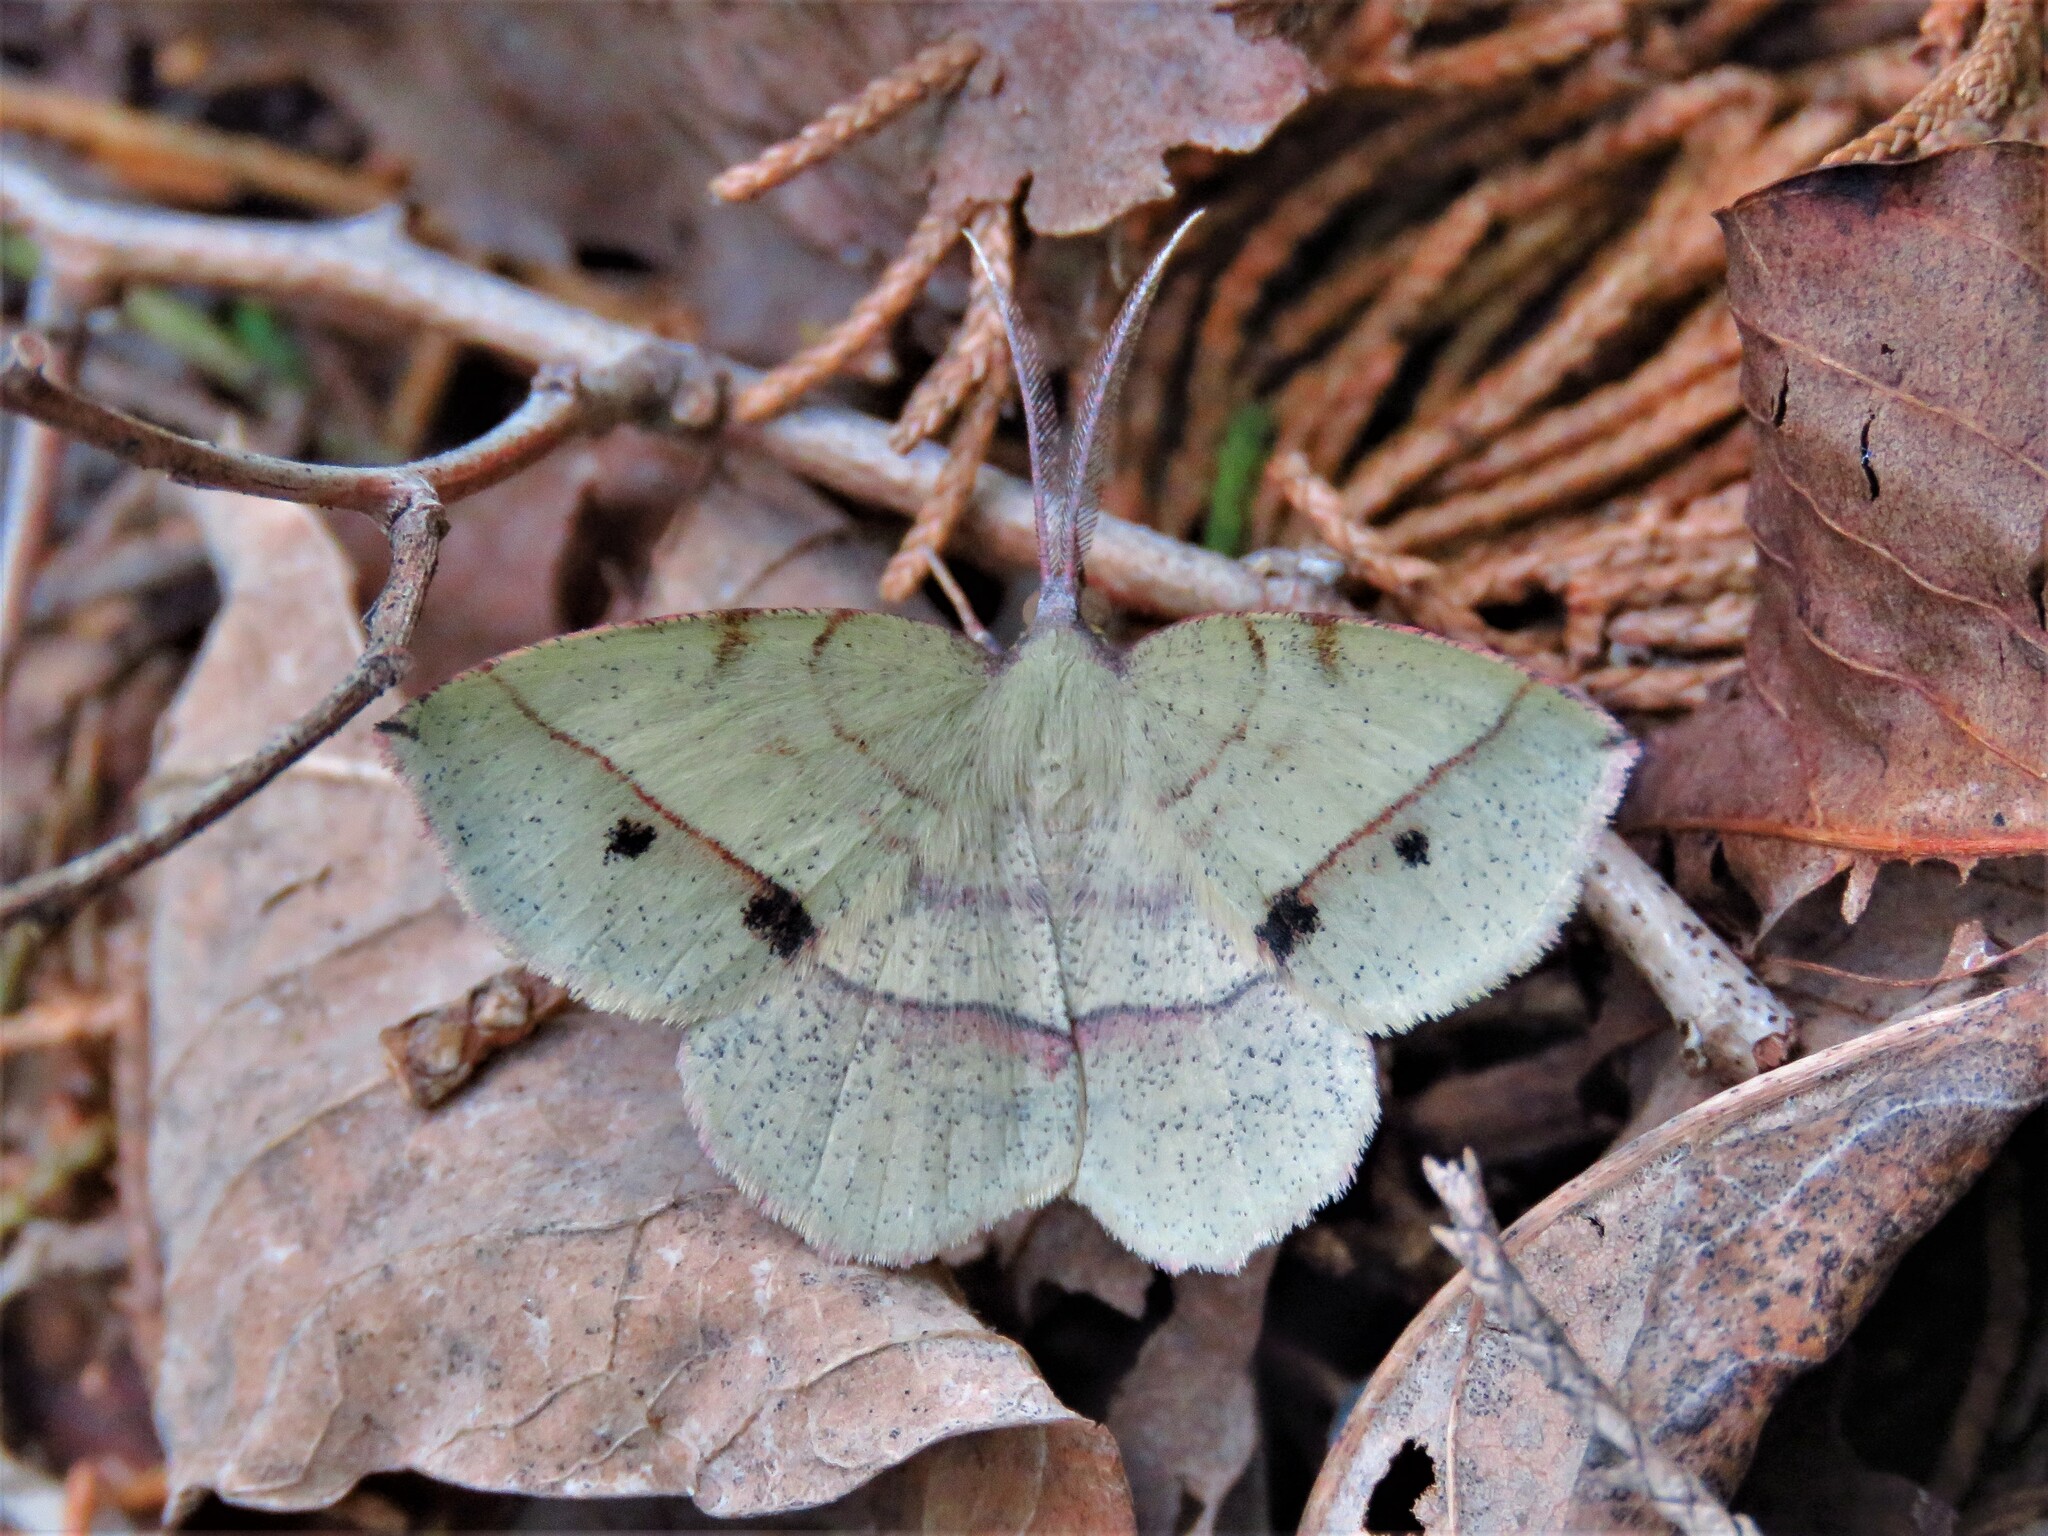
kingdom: Animalia
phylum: Arthropoda
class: Insecta
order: Lepidoptera
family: Geometridae
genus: Erastria
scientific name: Erastria cruentaria
